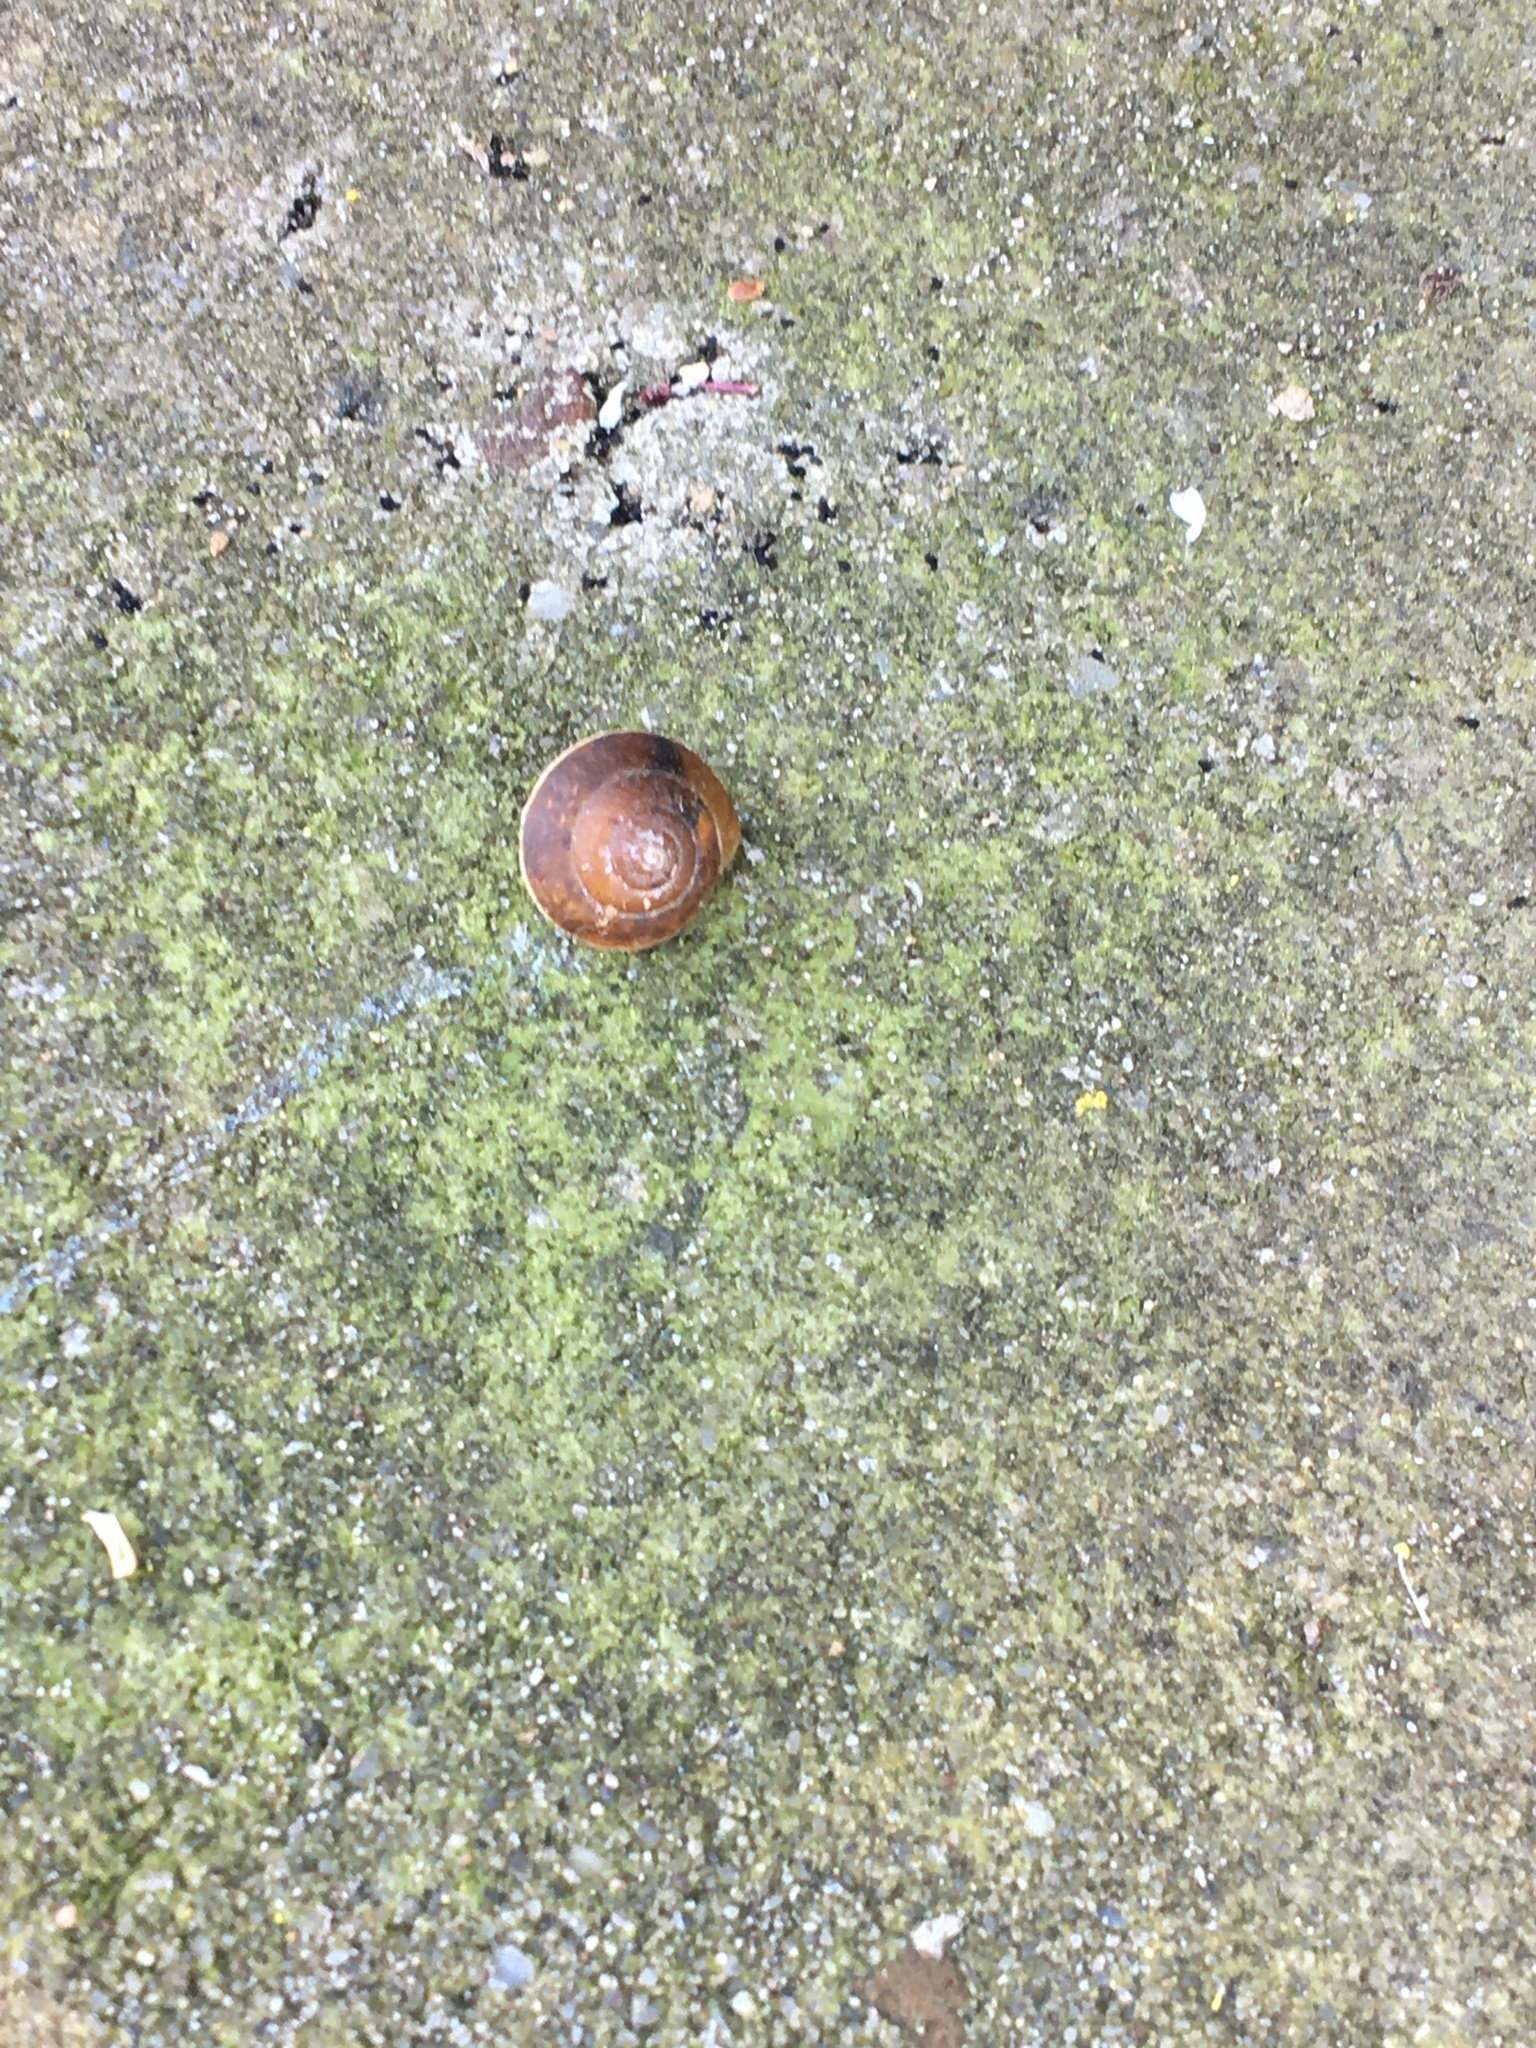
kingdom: Animalia
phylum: Mollusca
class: Gastropoda
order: Stylommatophora
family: Hygromiidae
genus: Hygromia
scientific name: Hygromia cinctella
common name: Girdled snail
